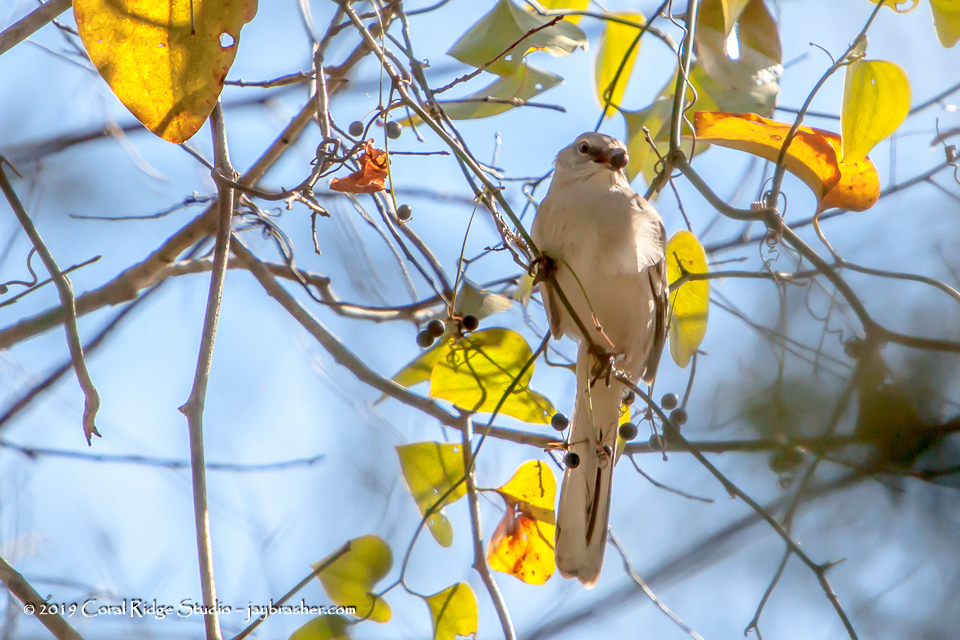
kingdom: Animalia
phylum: Chordata
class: Aves
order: Passeriformes
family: Mimidae
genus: Mimus
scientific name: Mimus polyglottos
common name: Northern mockingbird
